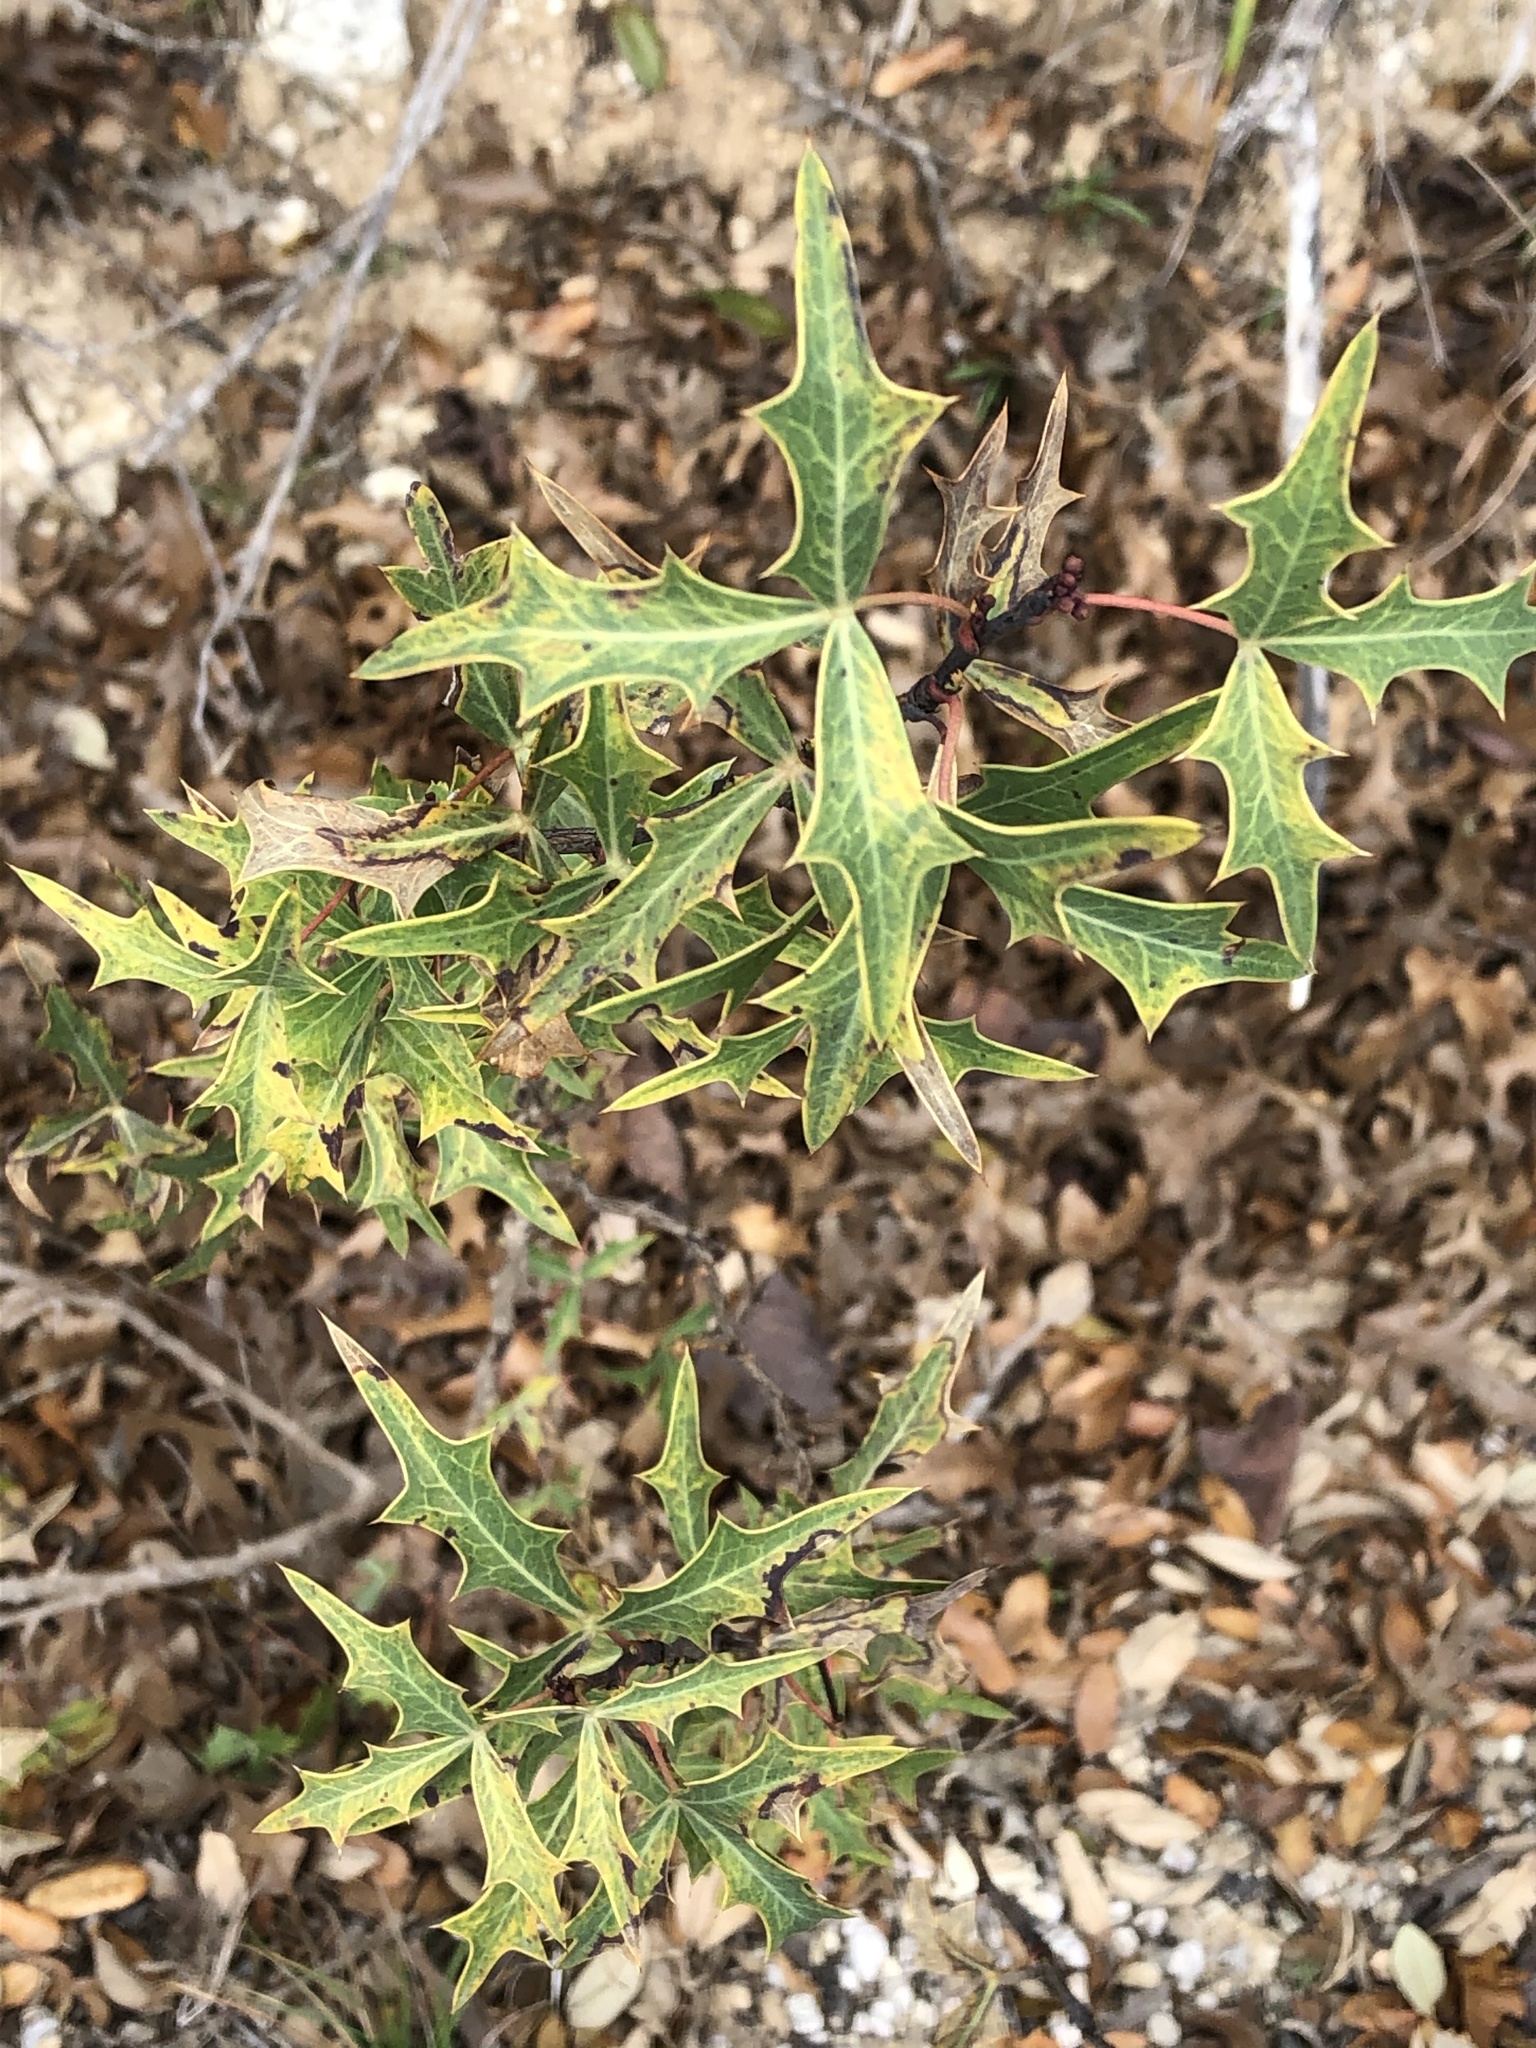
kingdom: Plantae
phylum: Tracheophyta
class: Magnoliopsida
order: Ranunculales
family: Berberidaceae
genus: Alloberberis
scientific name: Alloberberis trifoliolata
